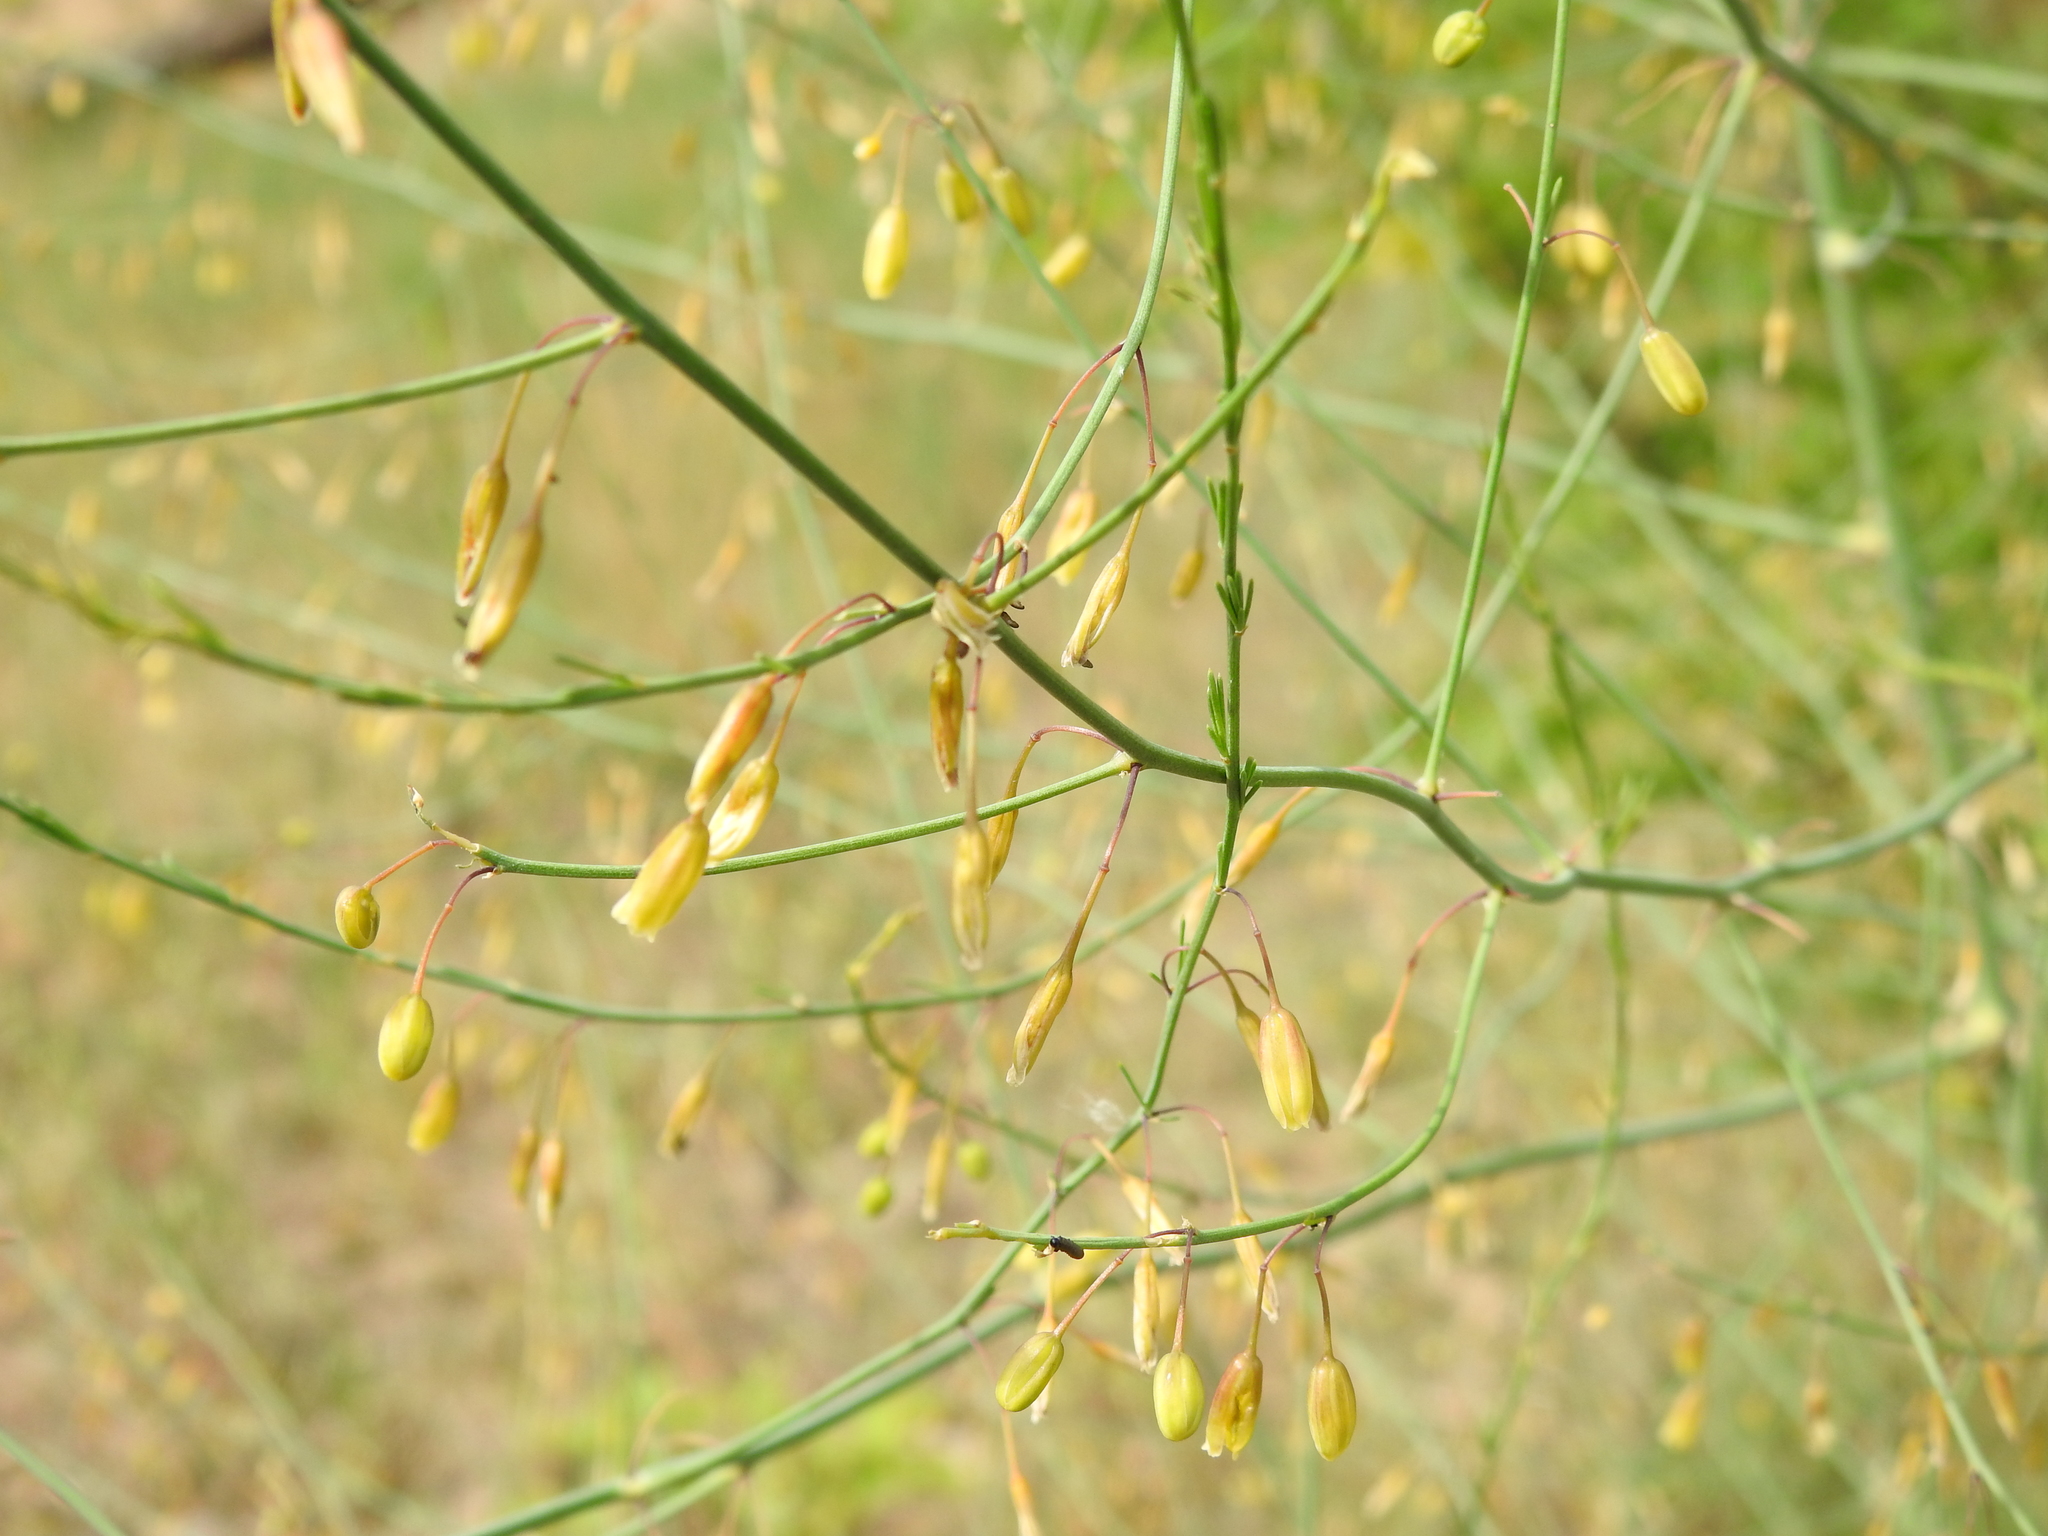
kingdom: Plantae
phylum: Tracheophyta
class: Liliopsida
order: Asparagales
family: Asparagaceae
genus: Asparagus
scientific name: Asparagus officinalis
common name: Garden asparagus
